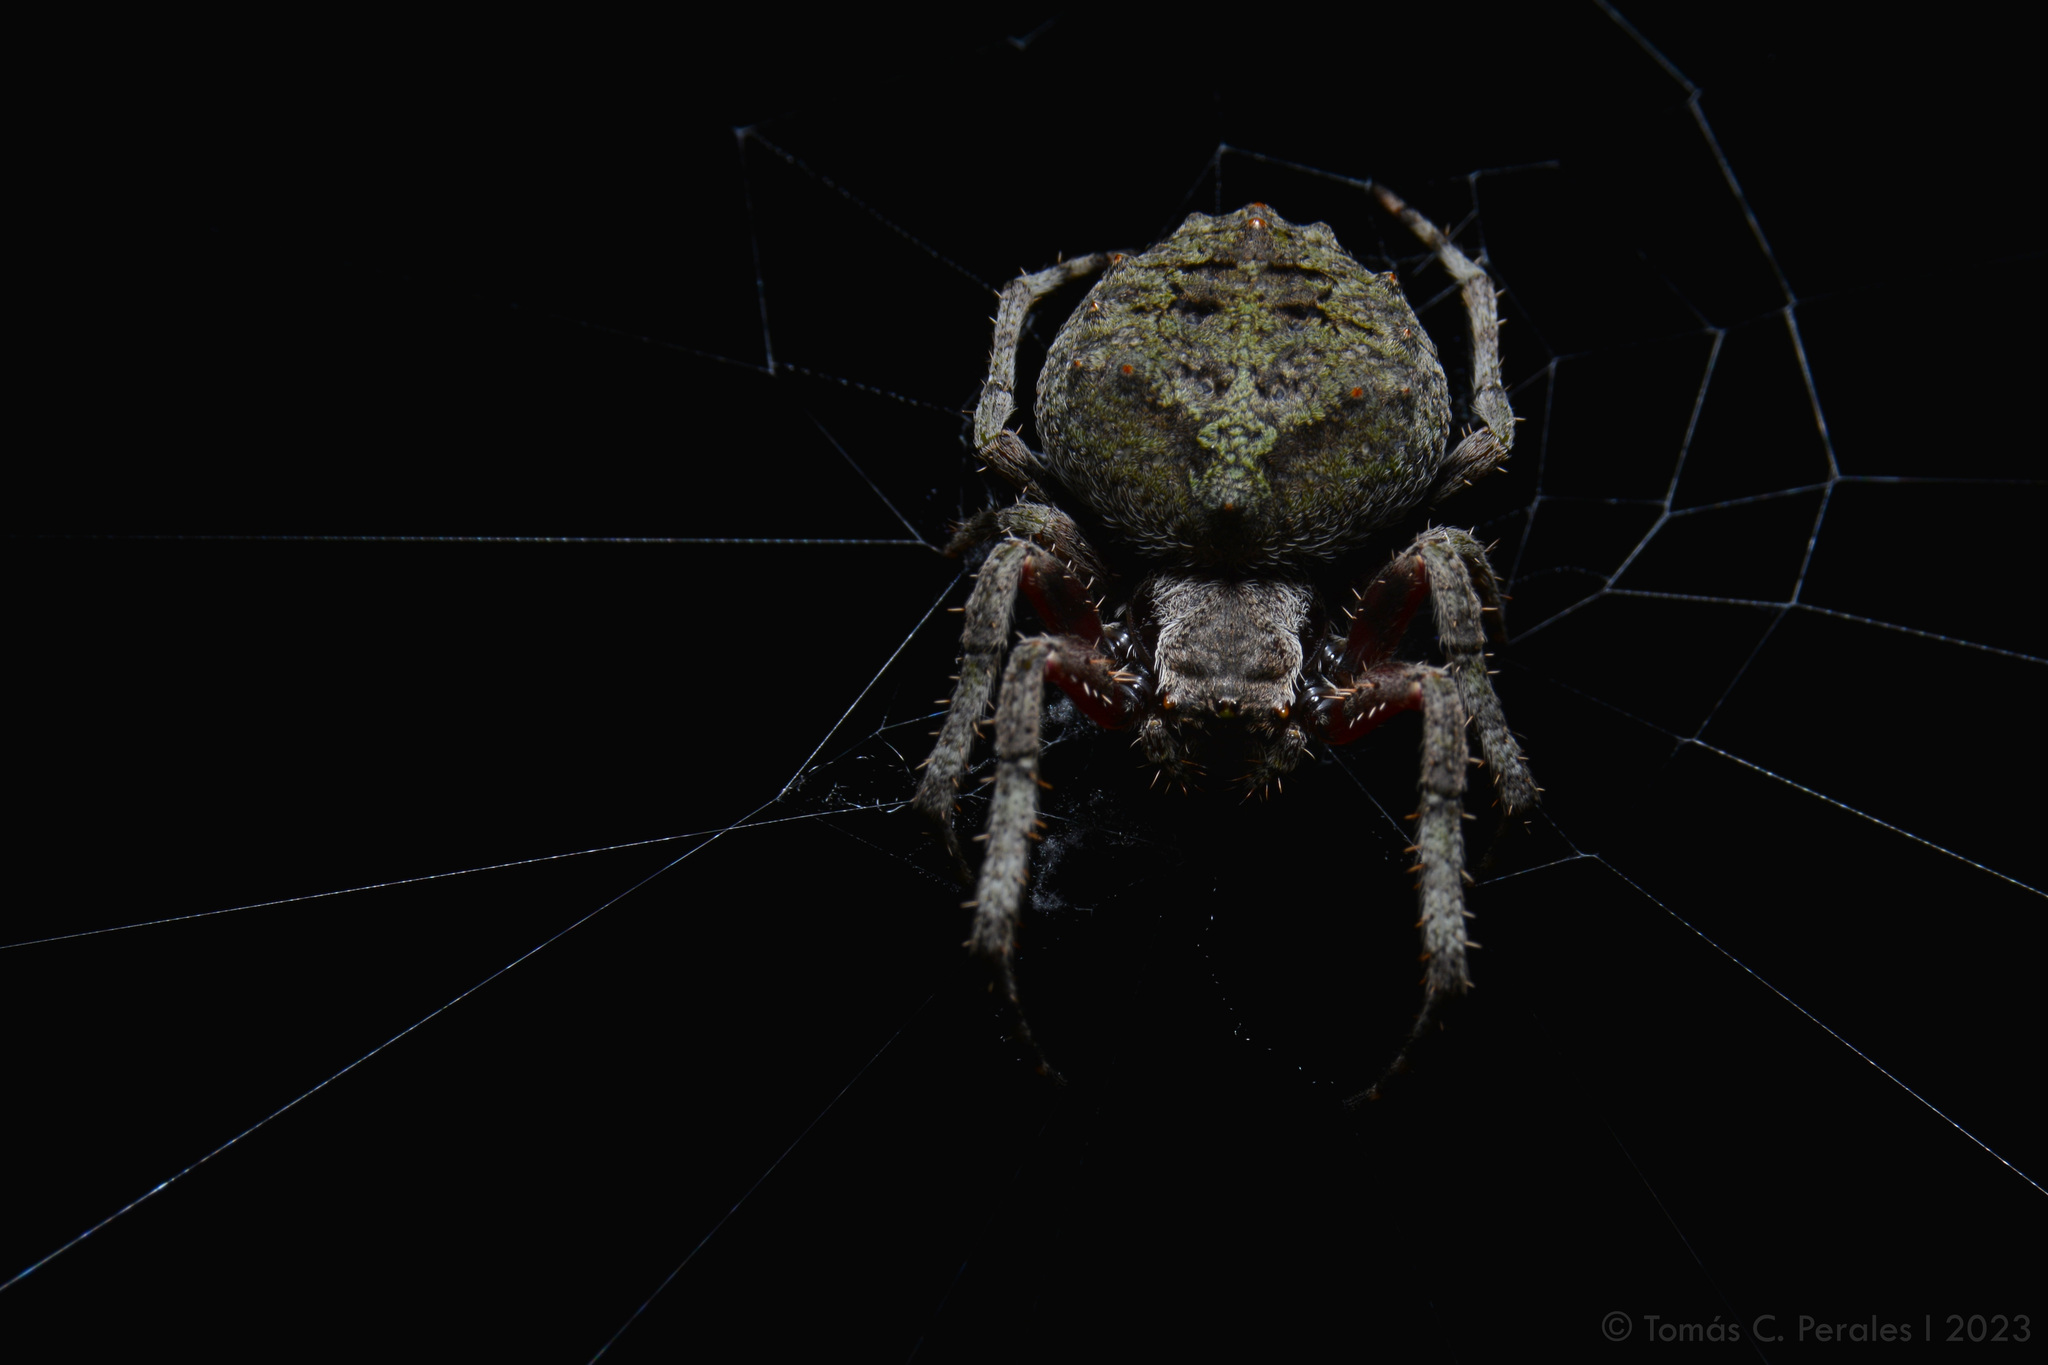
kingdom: Animalia
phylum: Arthropoda
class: Arachnida
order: Araneae
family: Araneidae
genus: Parawixia
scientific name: Parawixia audax
